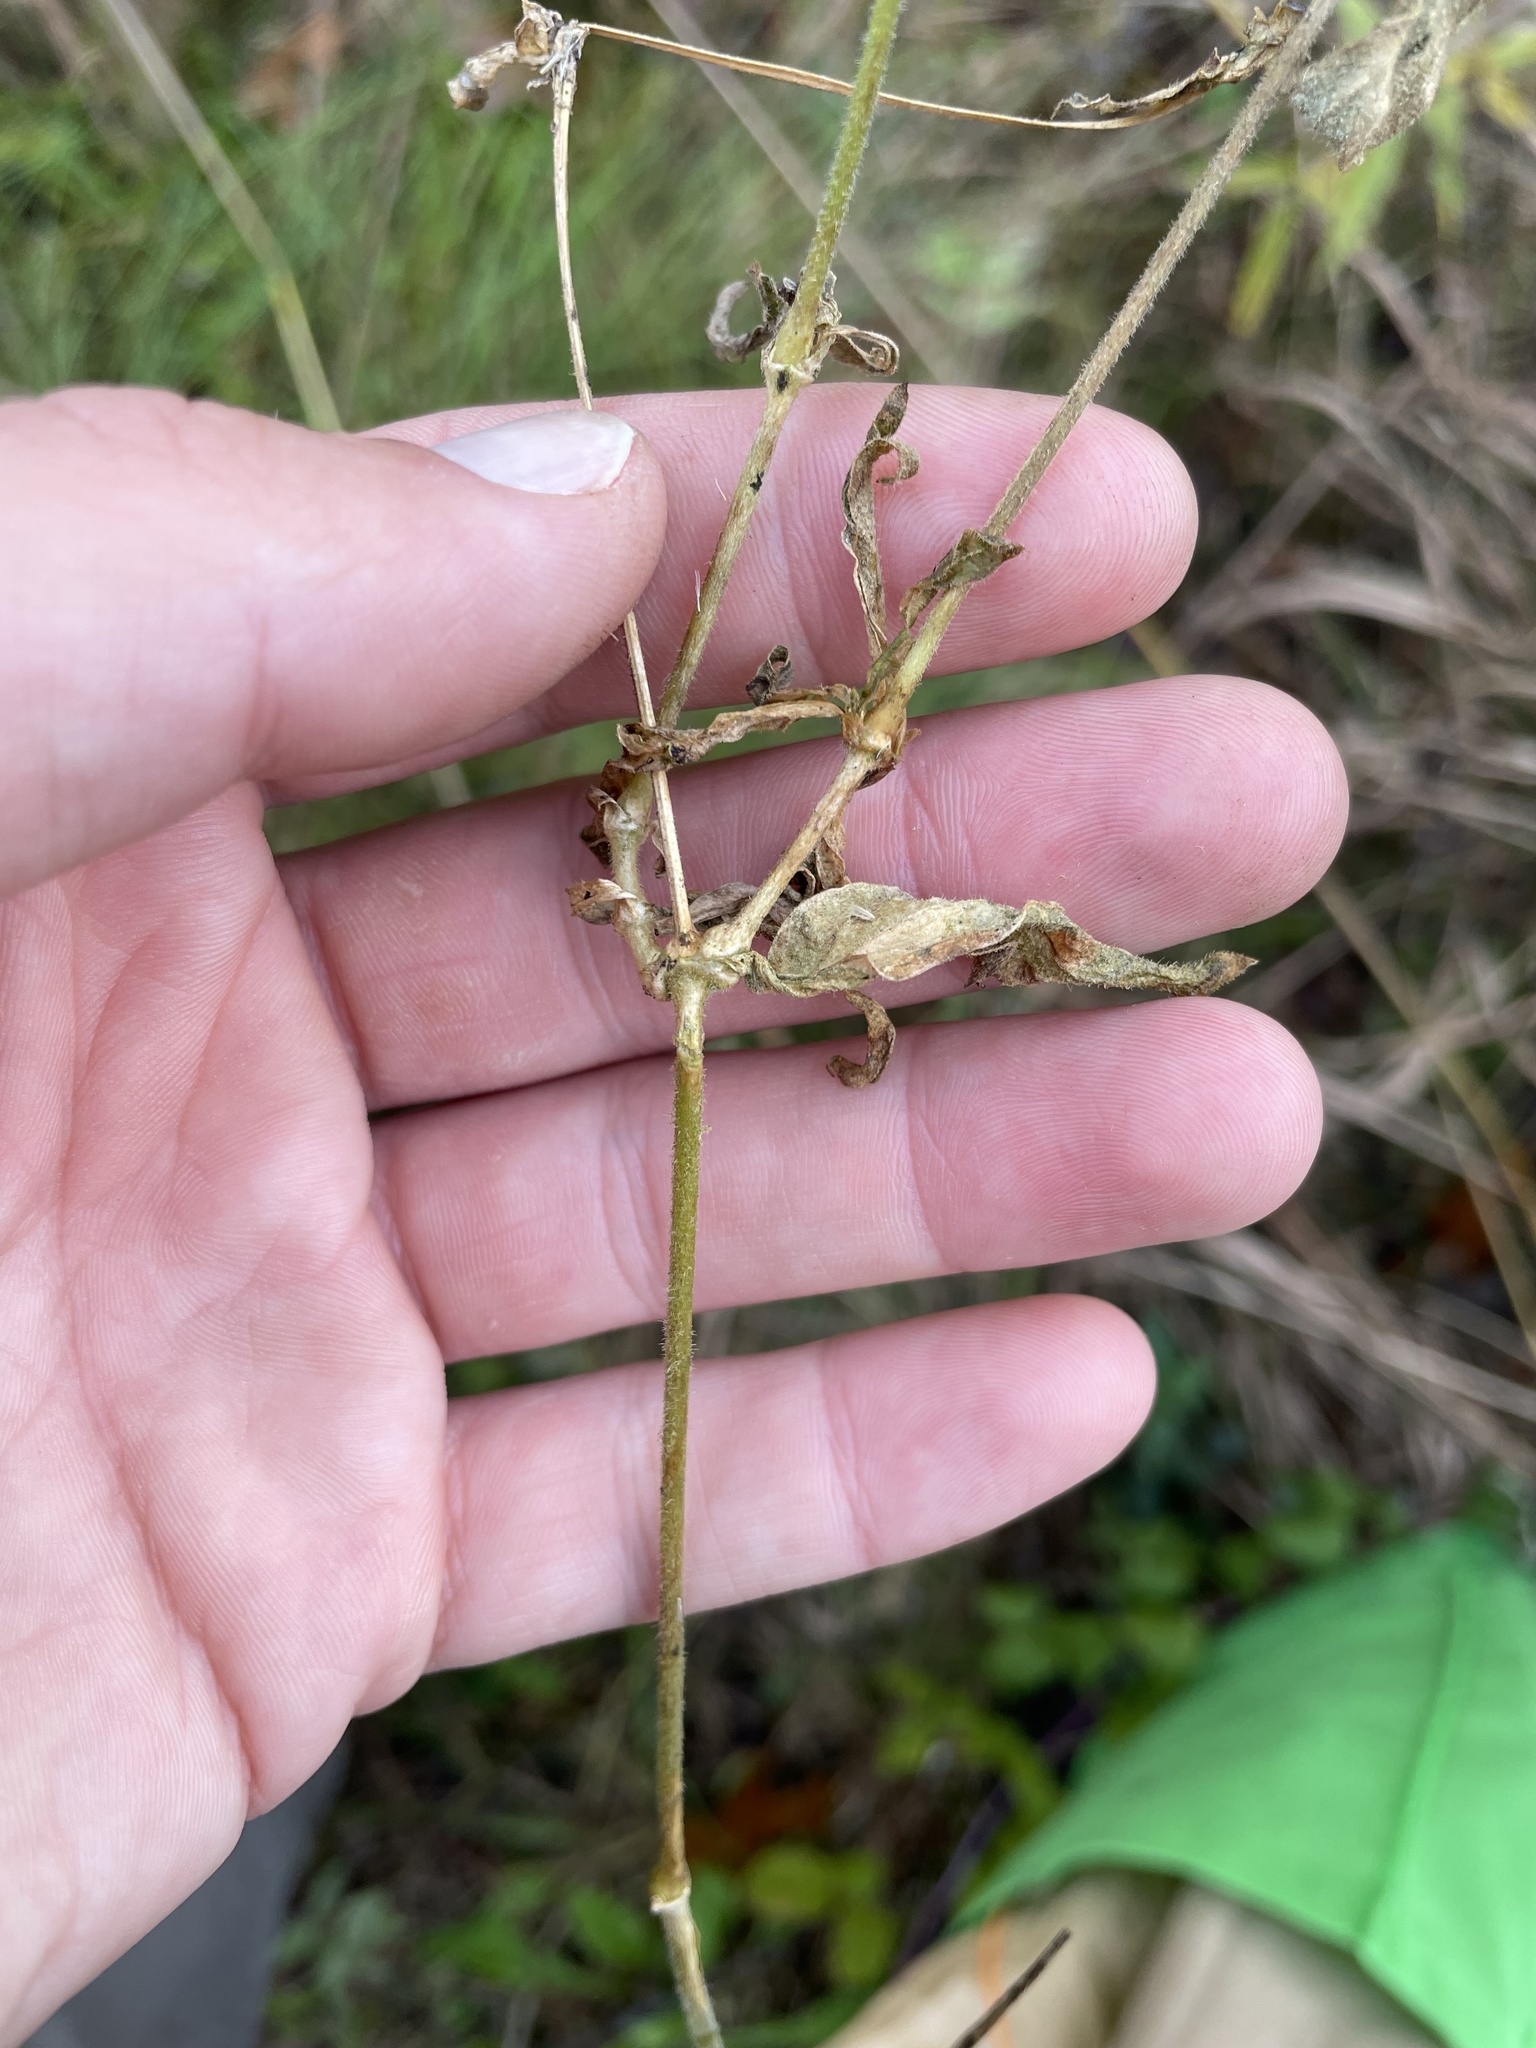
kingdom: Plantae
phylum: Tracheophyta
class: Magnoliopsida
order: Caryophyllales
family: Caryophyllaceae
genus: Silene
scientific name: Silene latifolia
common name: White campion
